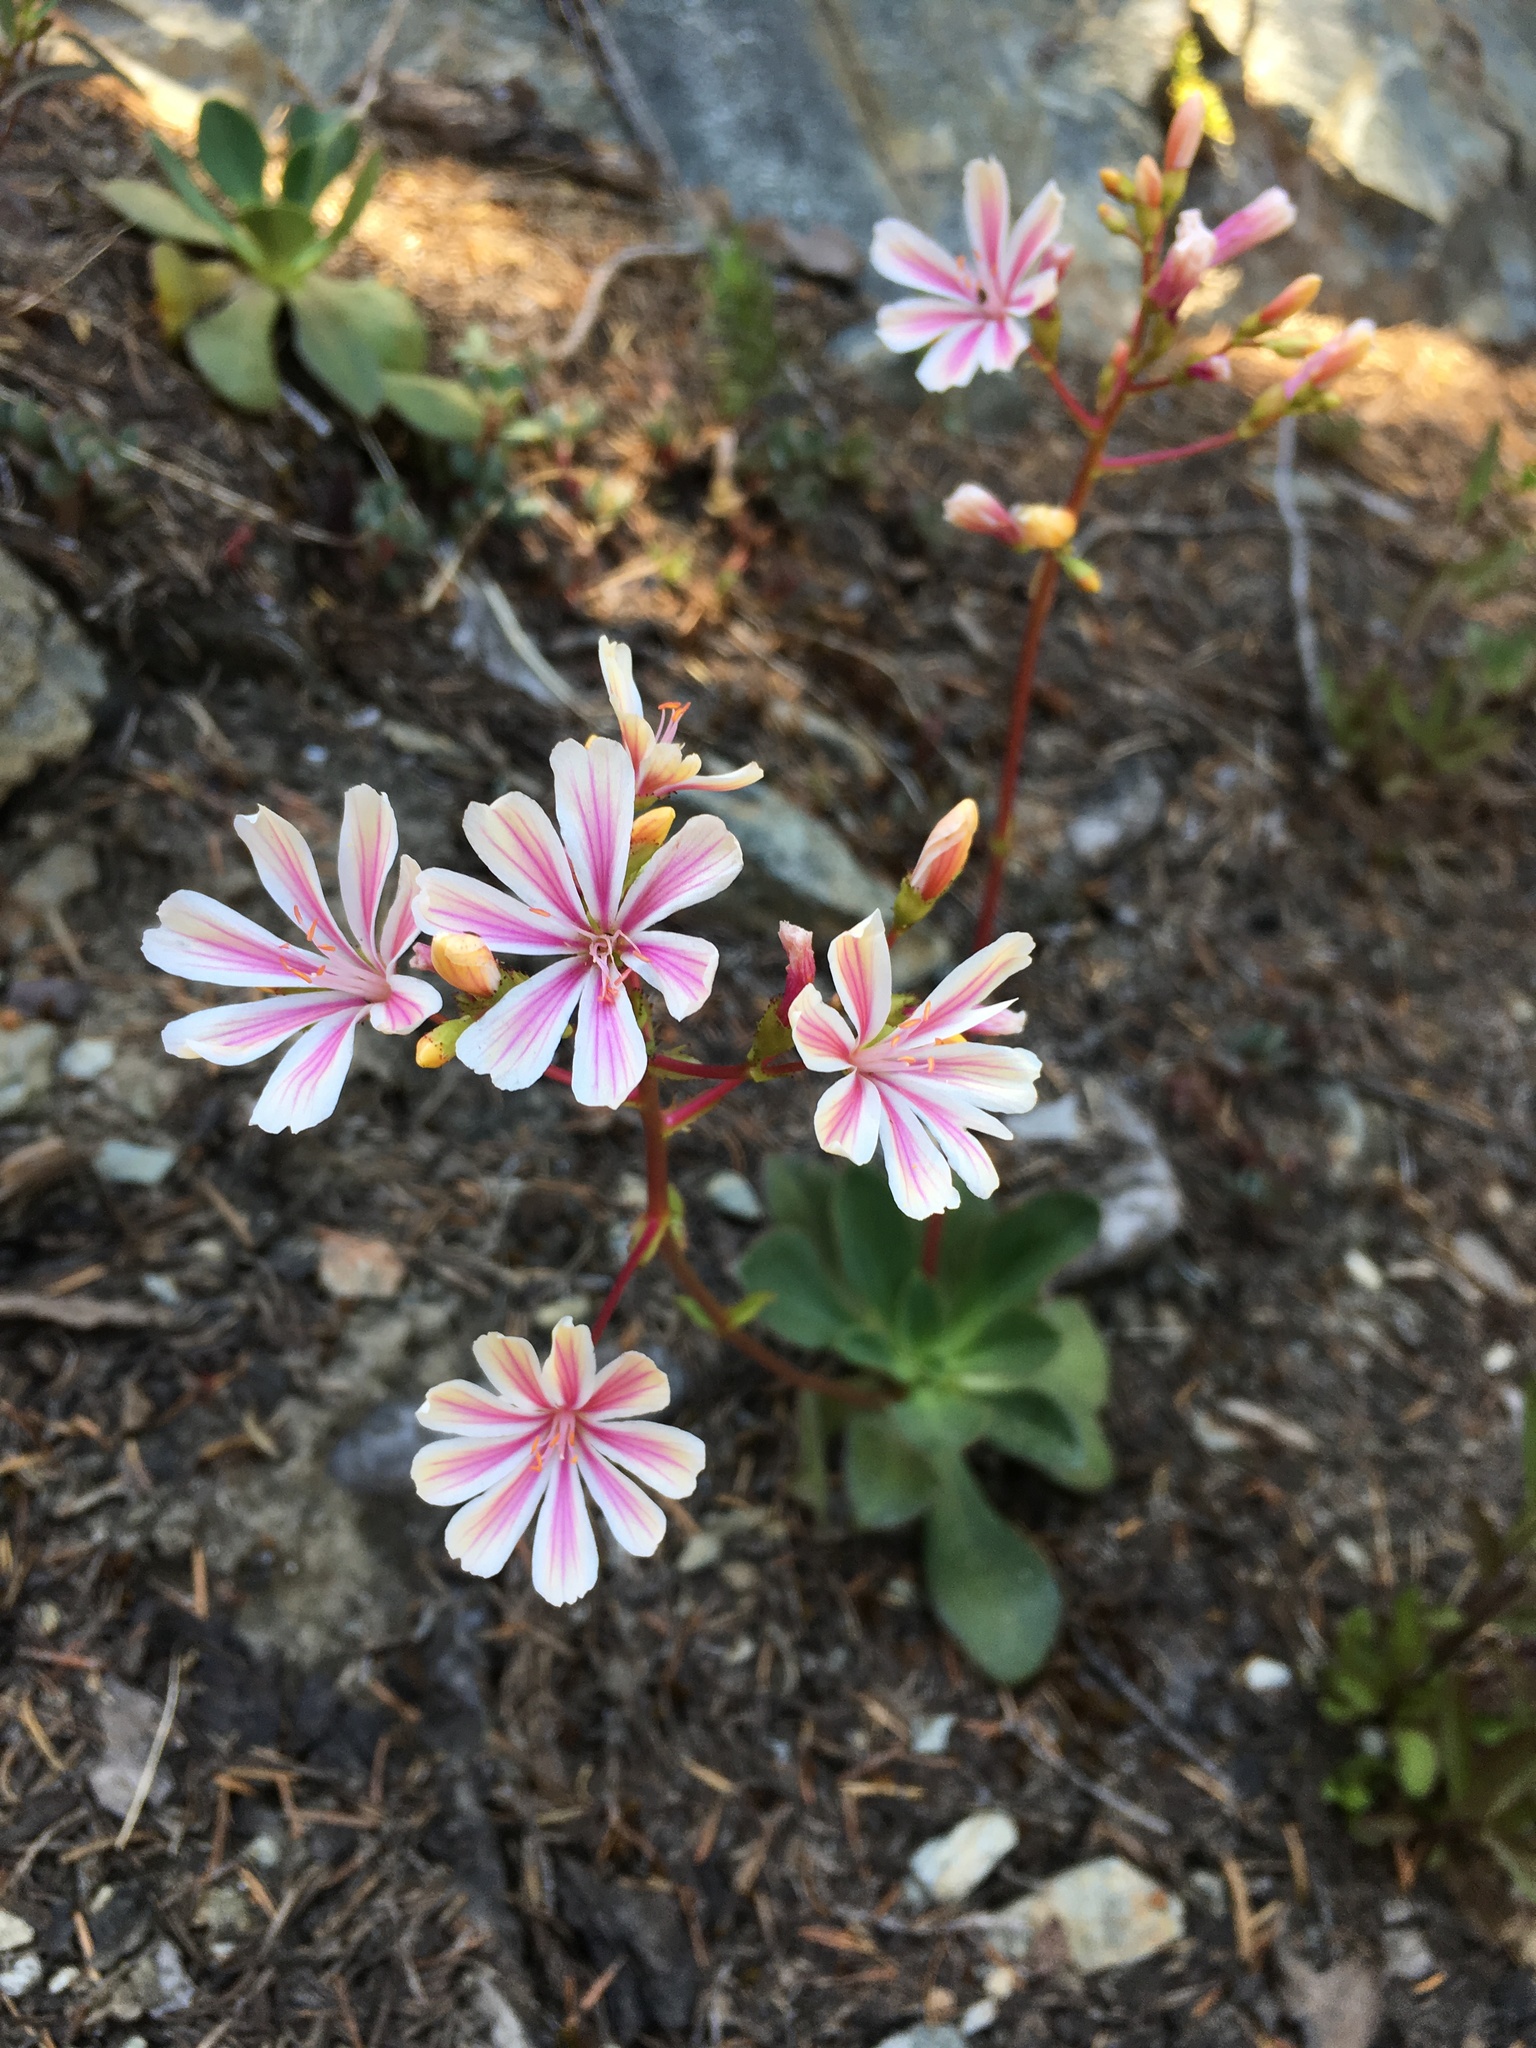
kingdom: Plantae
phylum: Tracheophyta
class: Magnoliopsida
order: Caryophyllales
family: Montiaceae
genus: Lewisia
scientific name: Lewisia cotyledon
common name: Siskiyou lewisia
